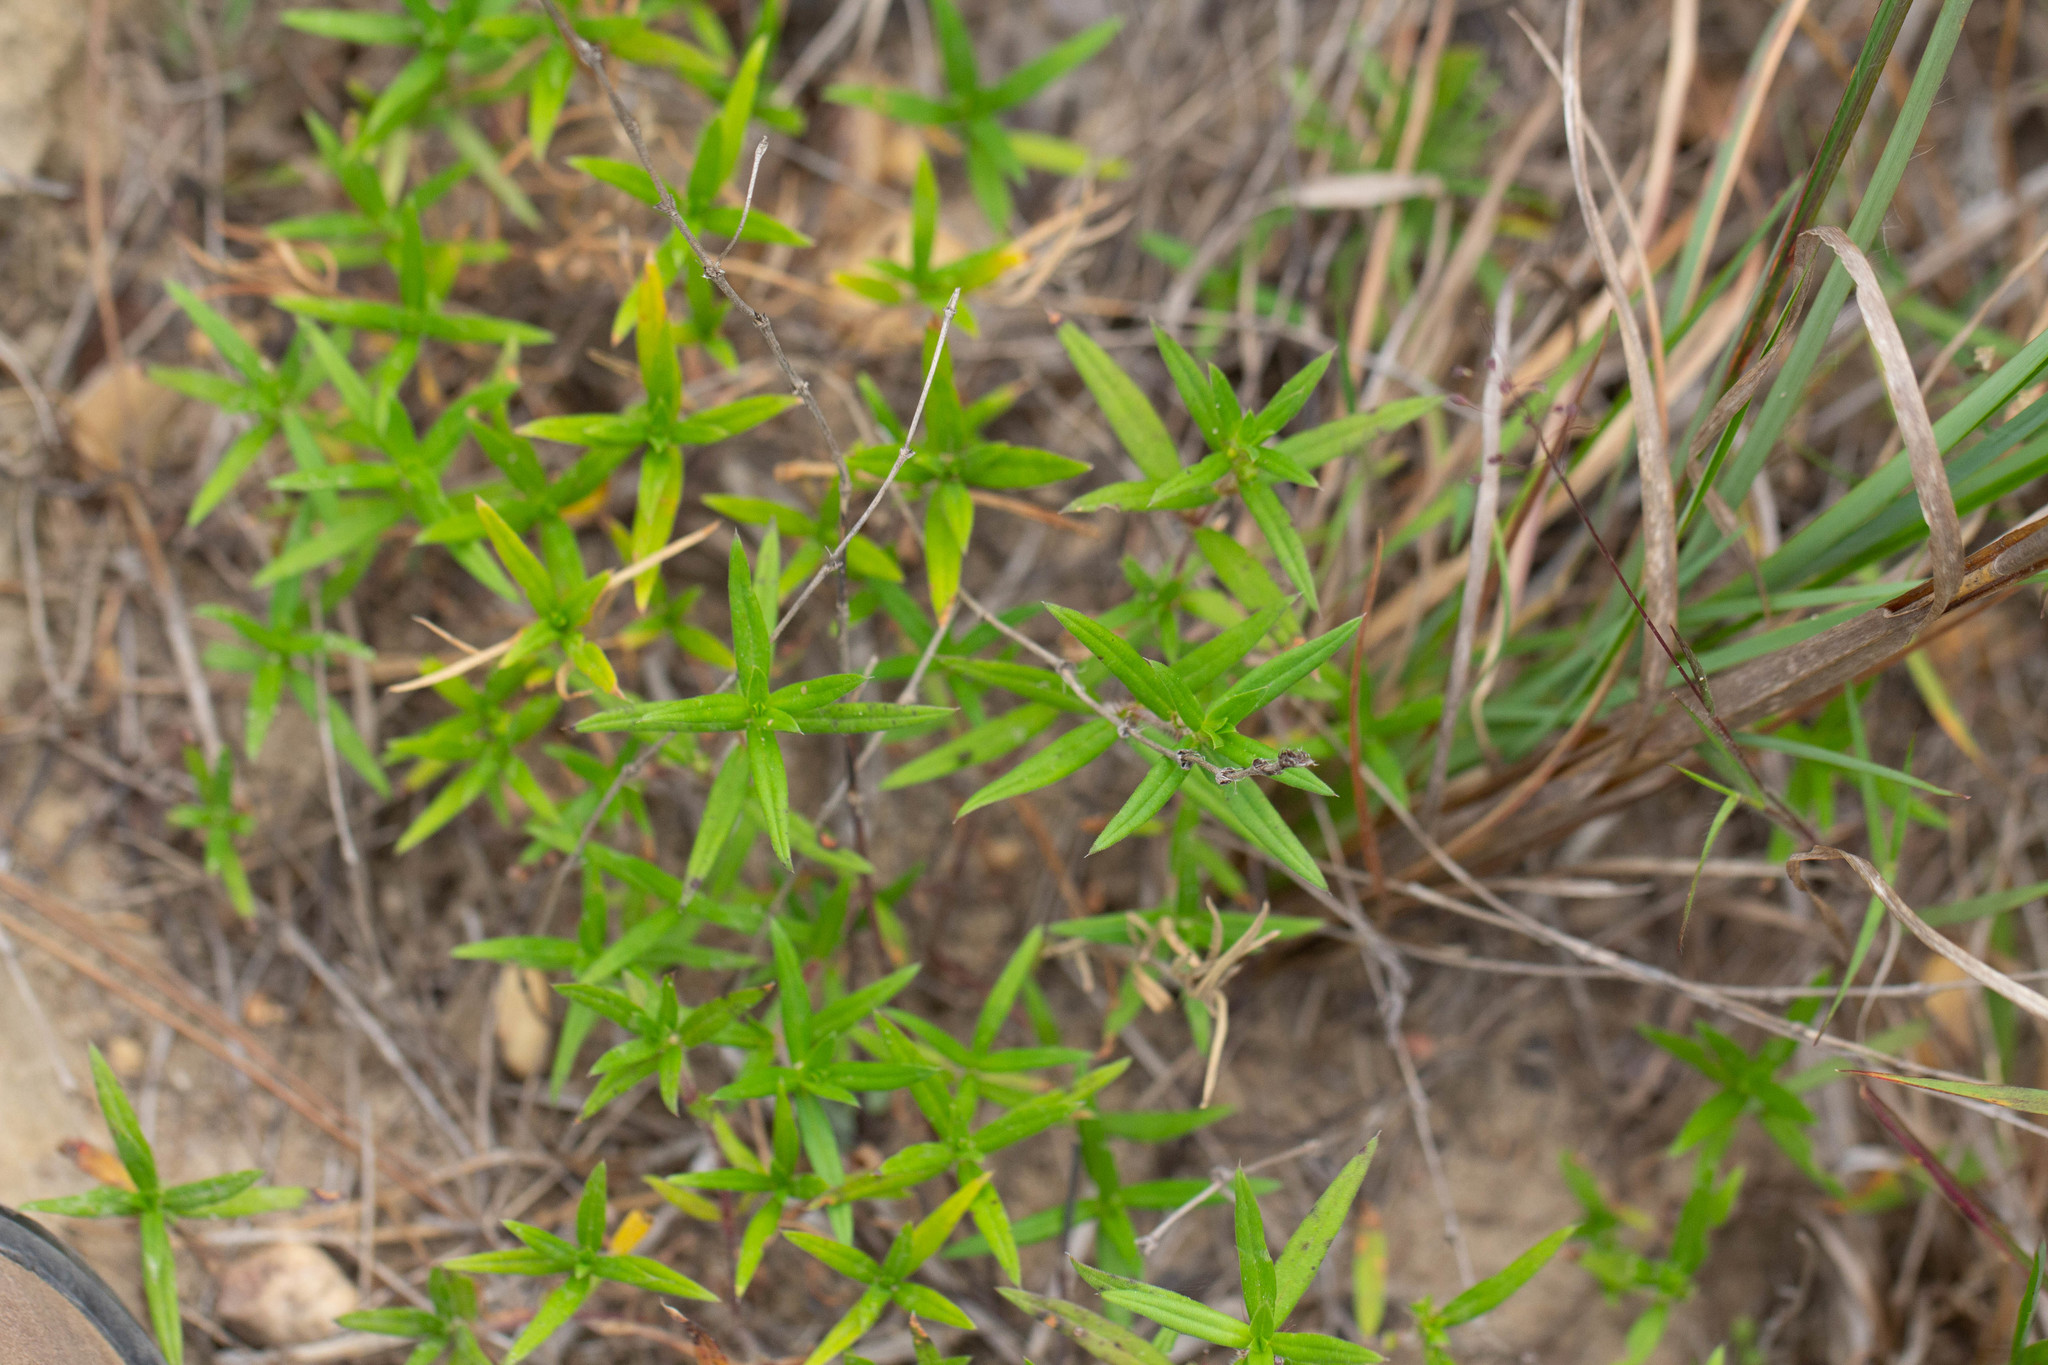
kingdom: Plantae
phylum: Tracheophyta
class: Magnoliopsida
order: Gentianales
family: Rubiaceae
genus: Hexasepalum
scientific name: Hexasepalum teres
